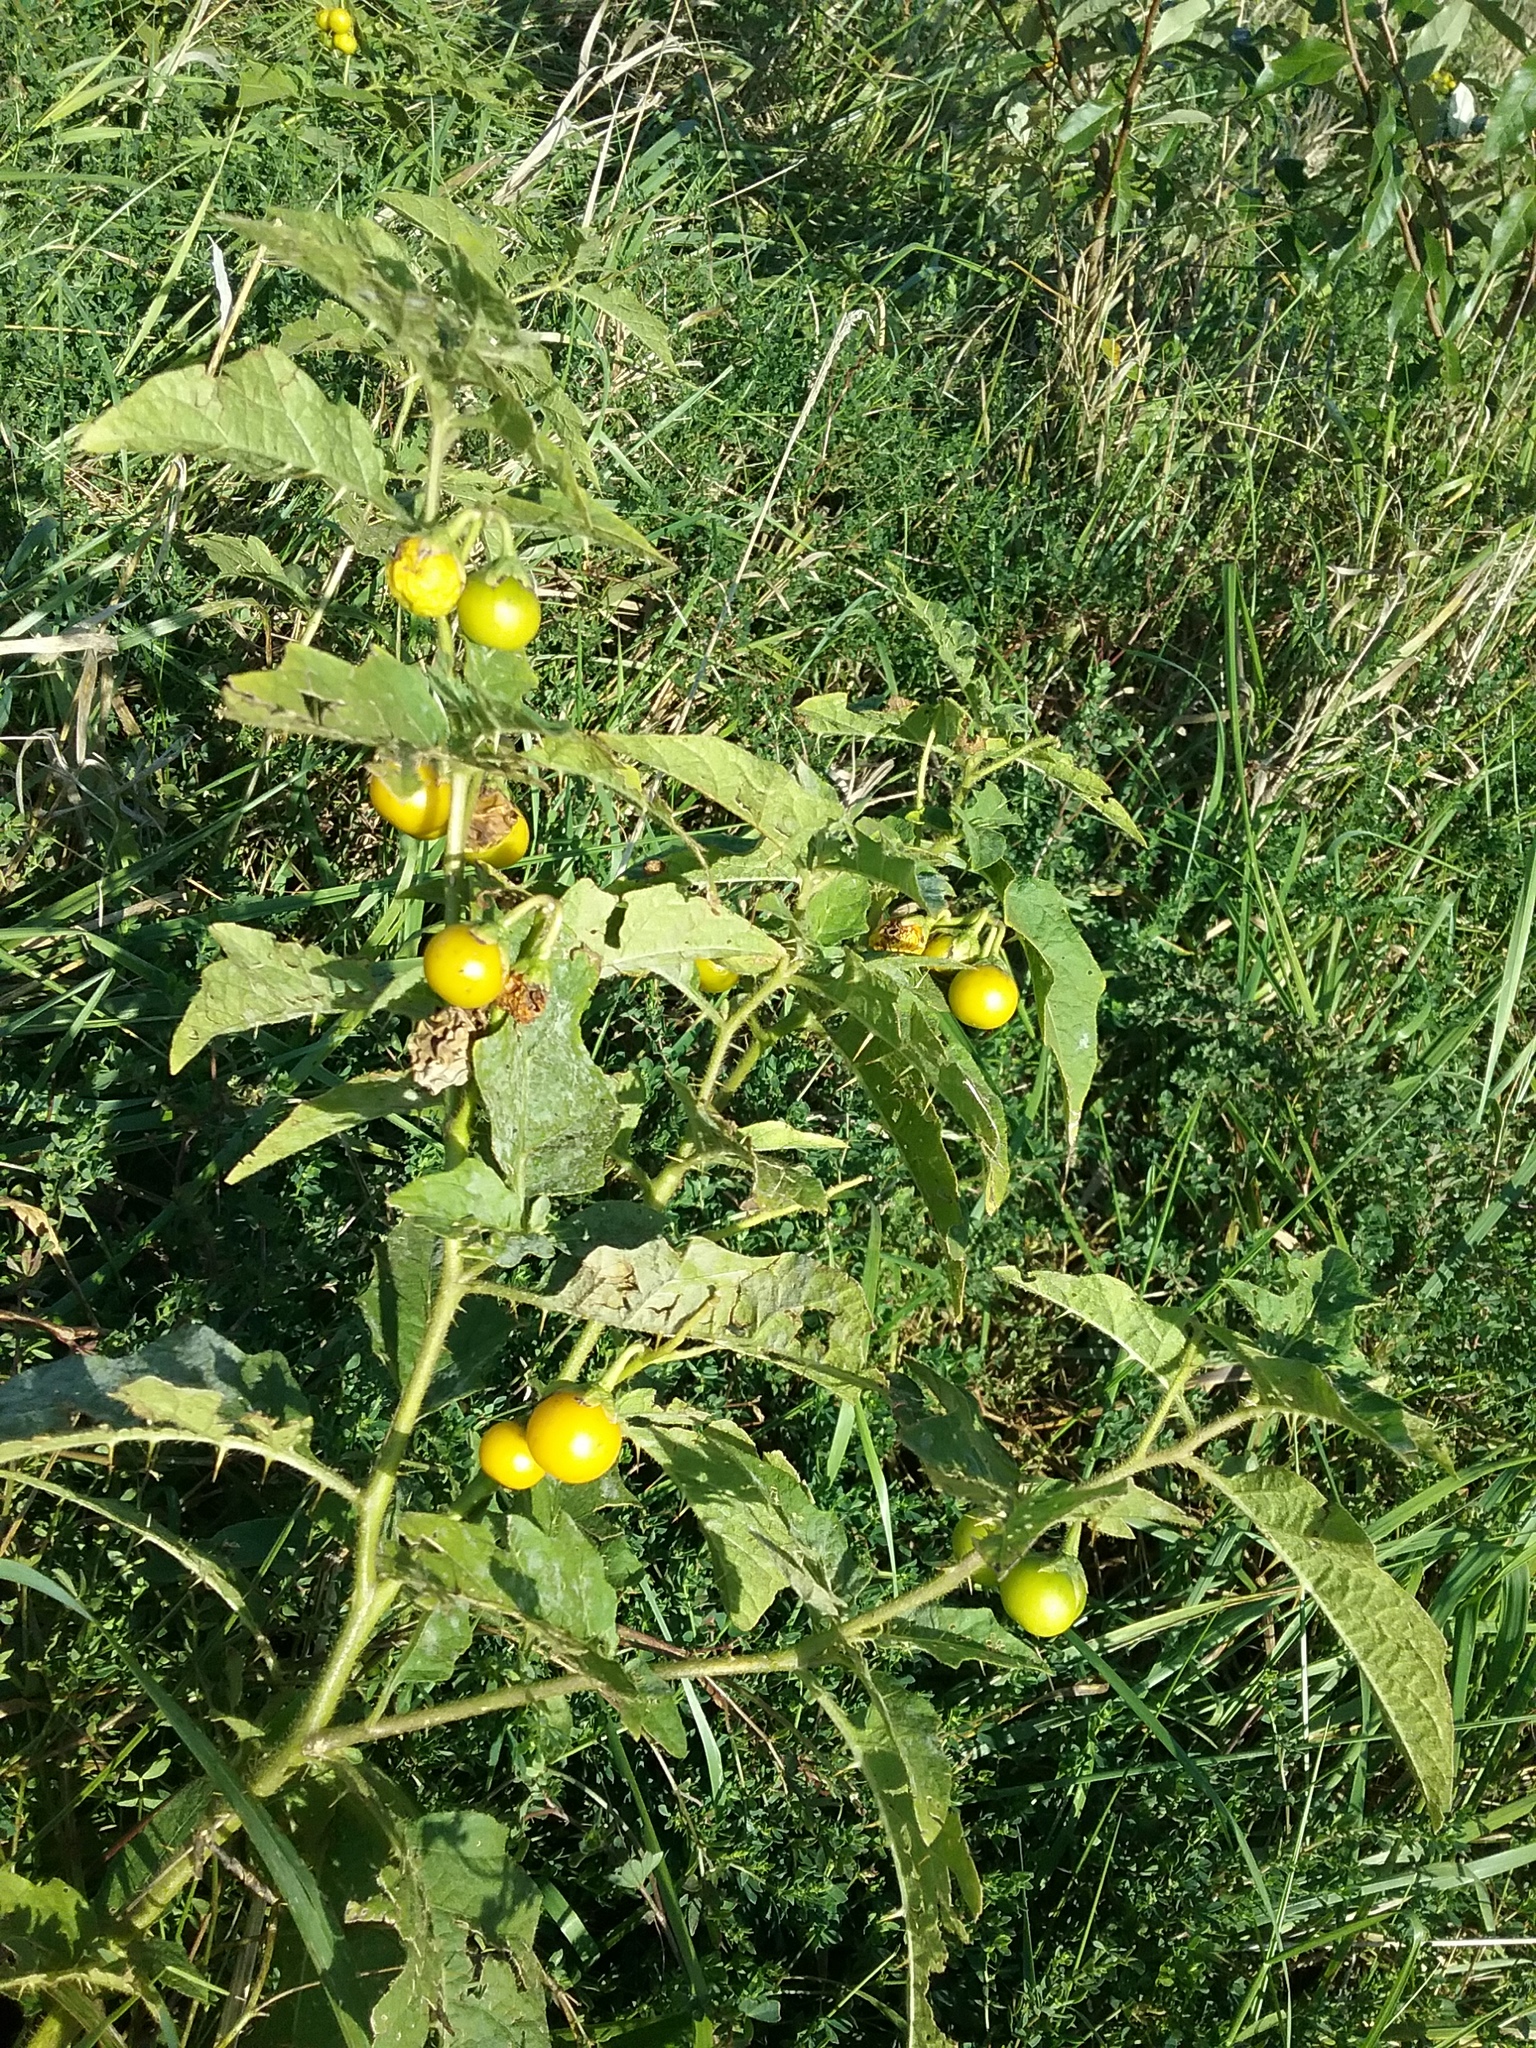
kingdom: Plantae
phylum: Tracheophyta
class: Magnoliopsida
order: Solanales
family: Solanaceae
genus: Solanum
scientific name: Solanum carolinense
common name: Horse-nettle
